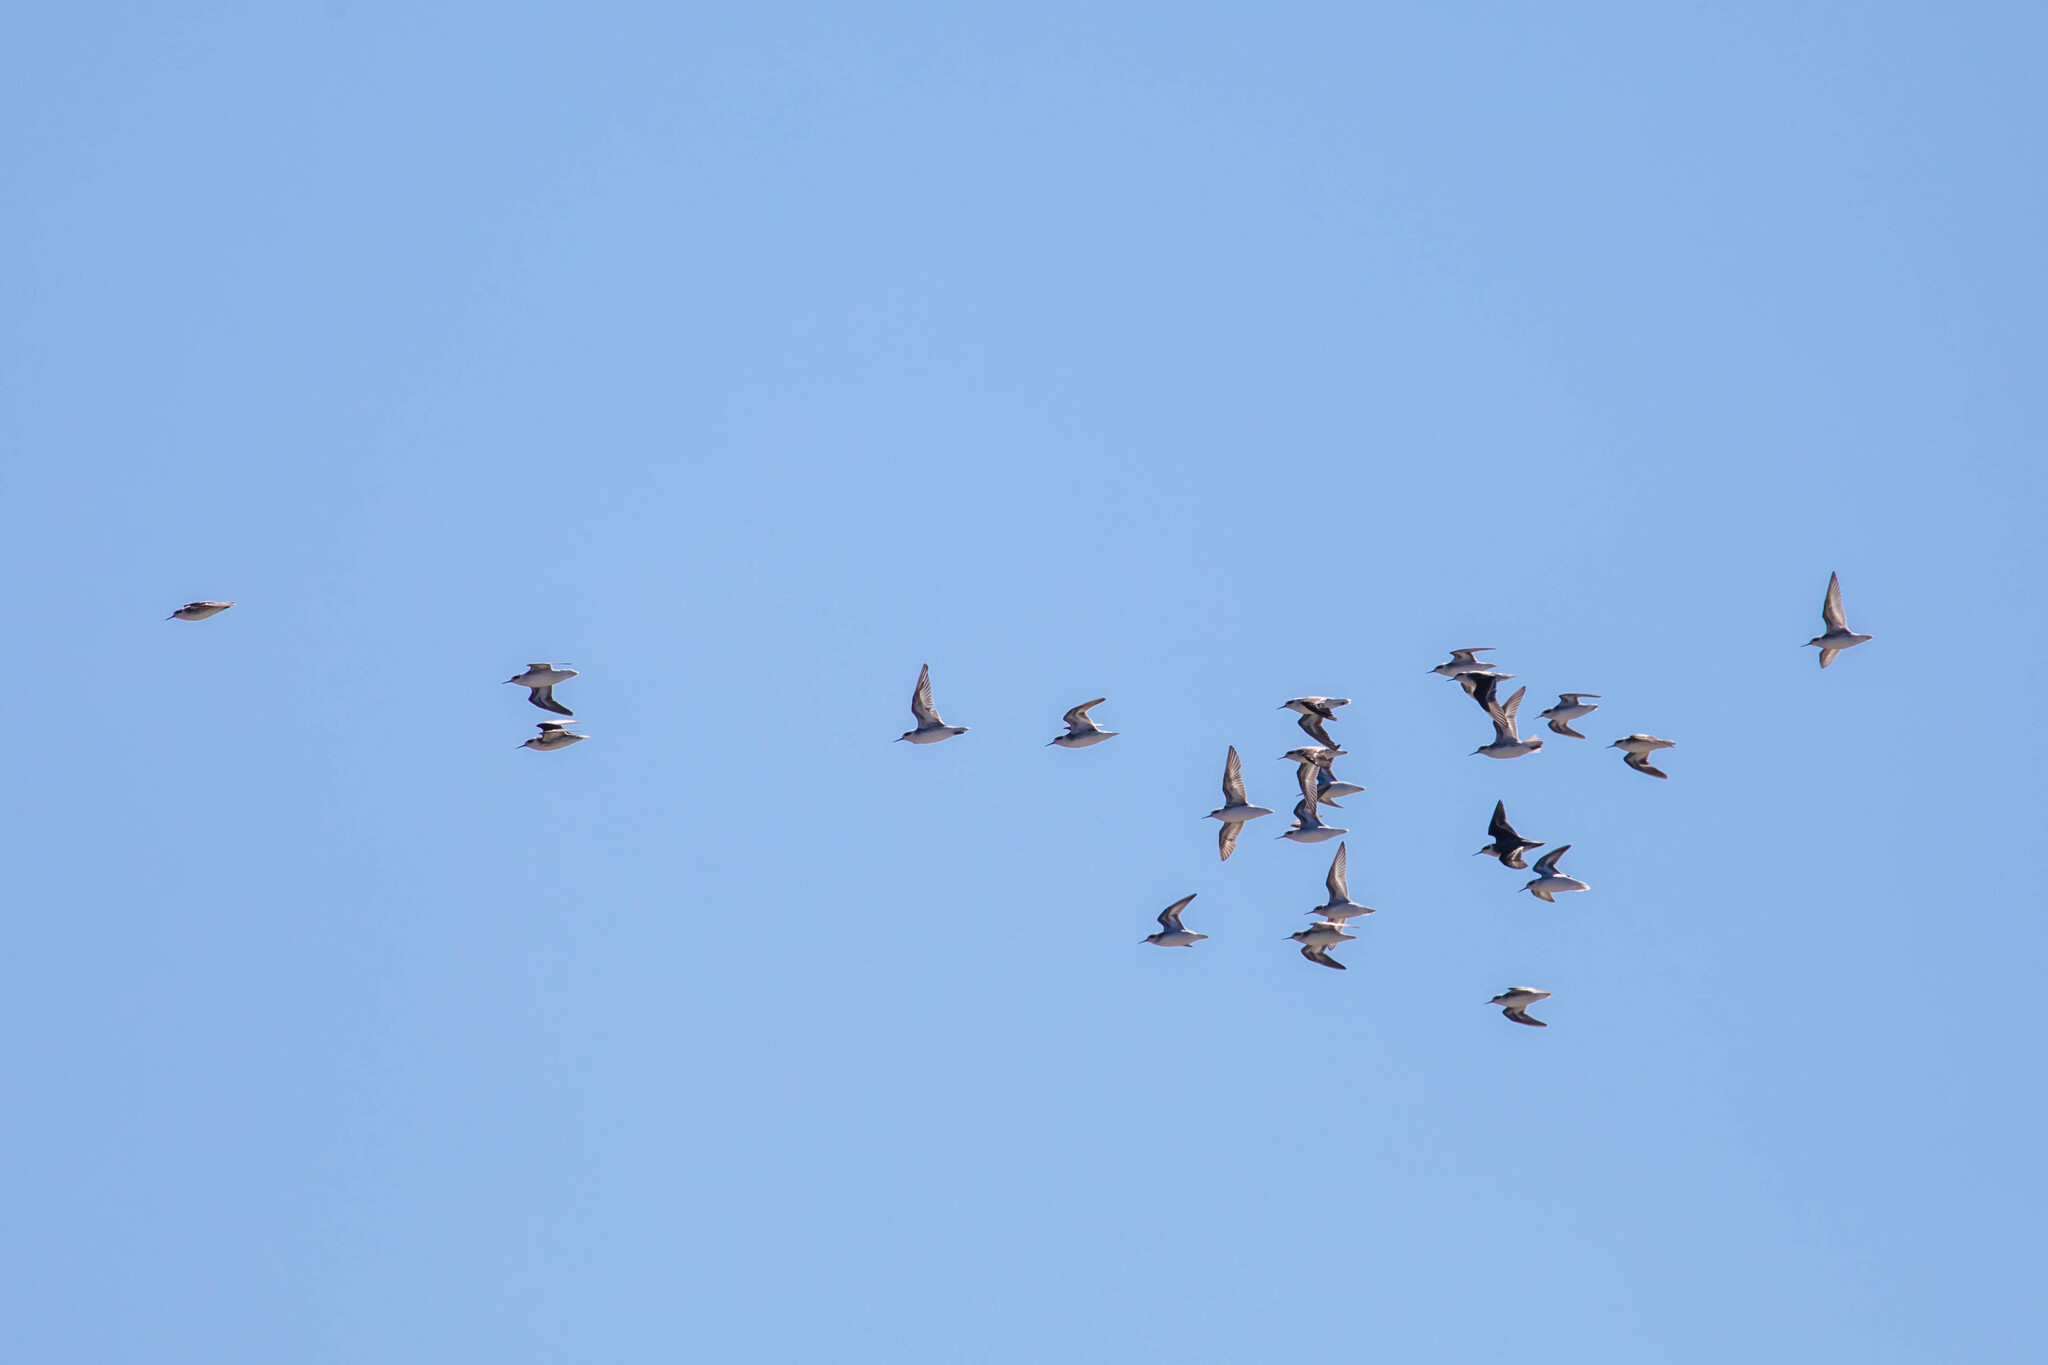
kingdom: Animalia
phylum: Chordata
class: Aves
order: Charadriiformes
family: Scolopacidae
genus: Phalaropus
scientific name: Phalaropus lobatus
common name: Red-necked phalarope
